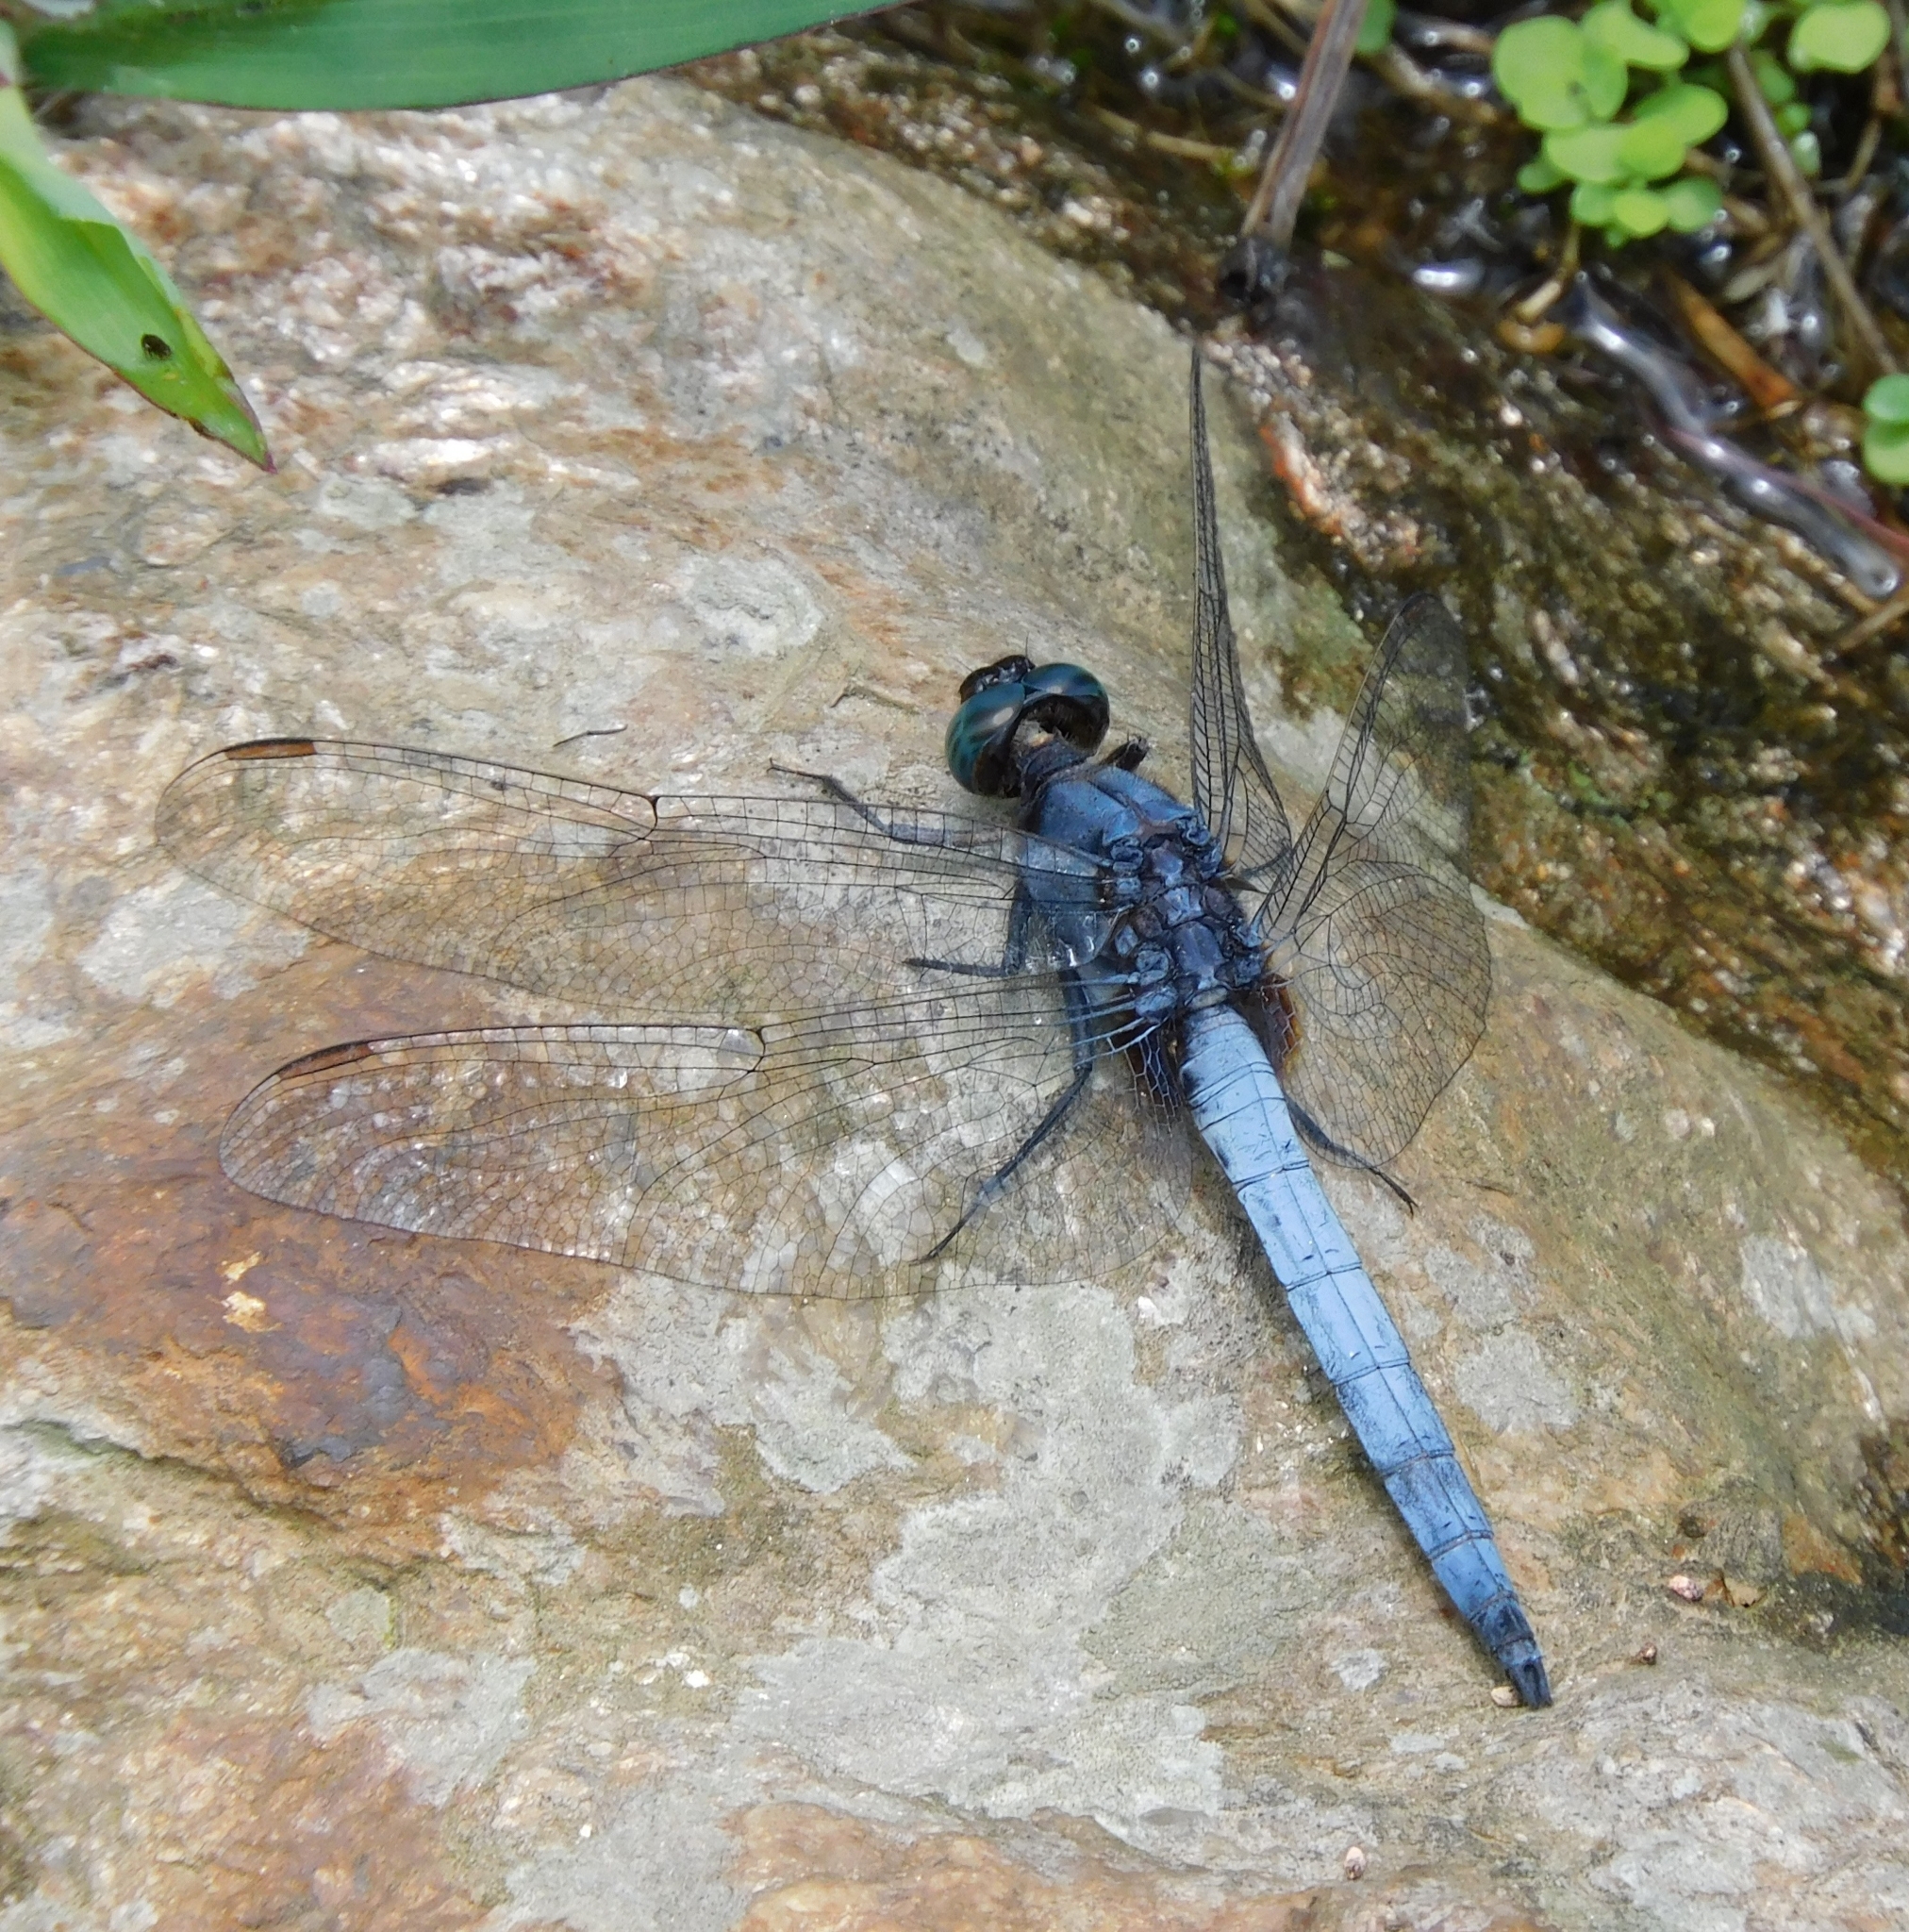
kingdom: Animalia
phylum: Arthropoda
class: Insecta
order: Odonata
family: Libellulidae
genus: Orthetrum
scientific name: Orthetrum glaucum
